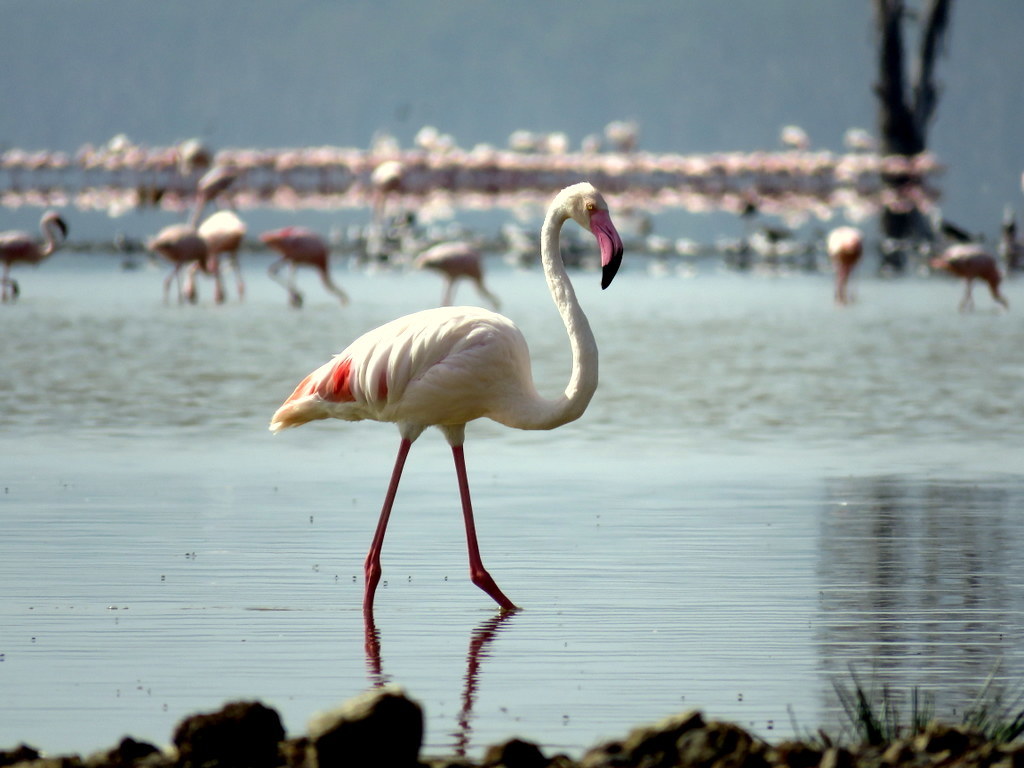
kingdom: Animalia
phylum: Chordata
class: Aves
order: Phoenicopteriformes
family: Phoenicopteridae
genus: Phoenicopterus
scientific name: Phoenicopterus roseus
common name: Greater flamingo
